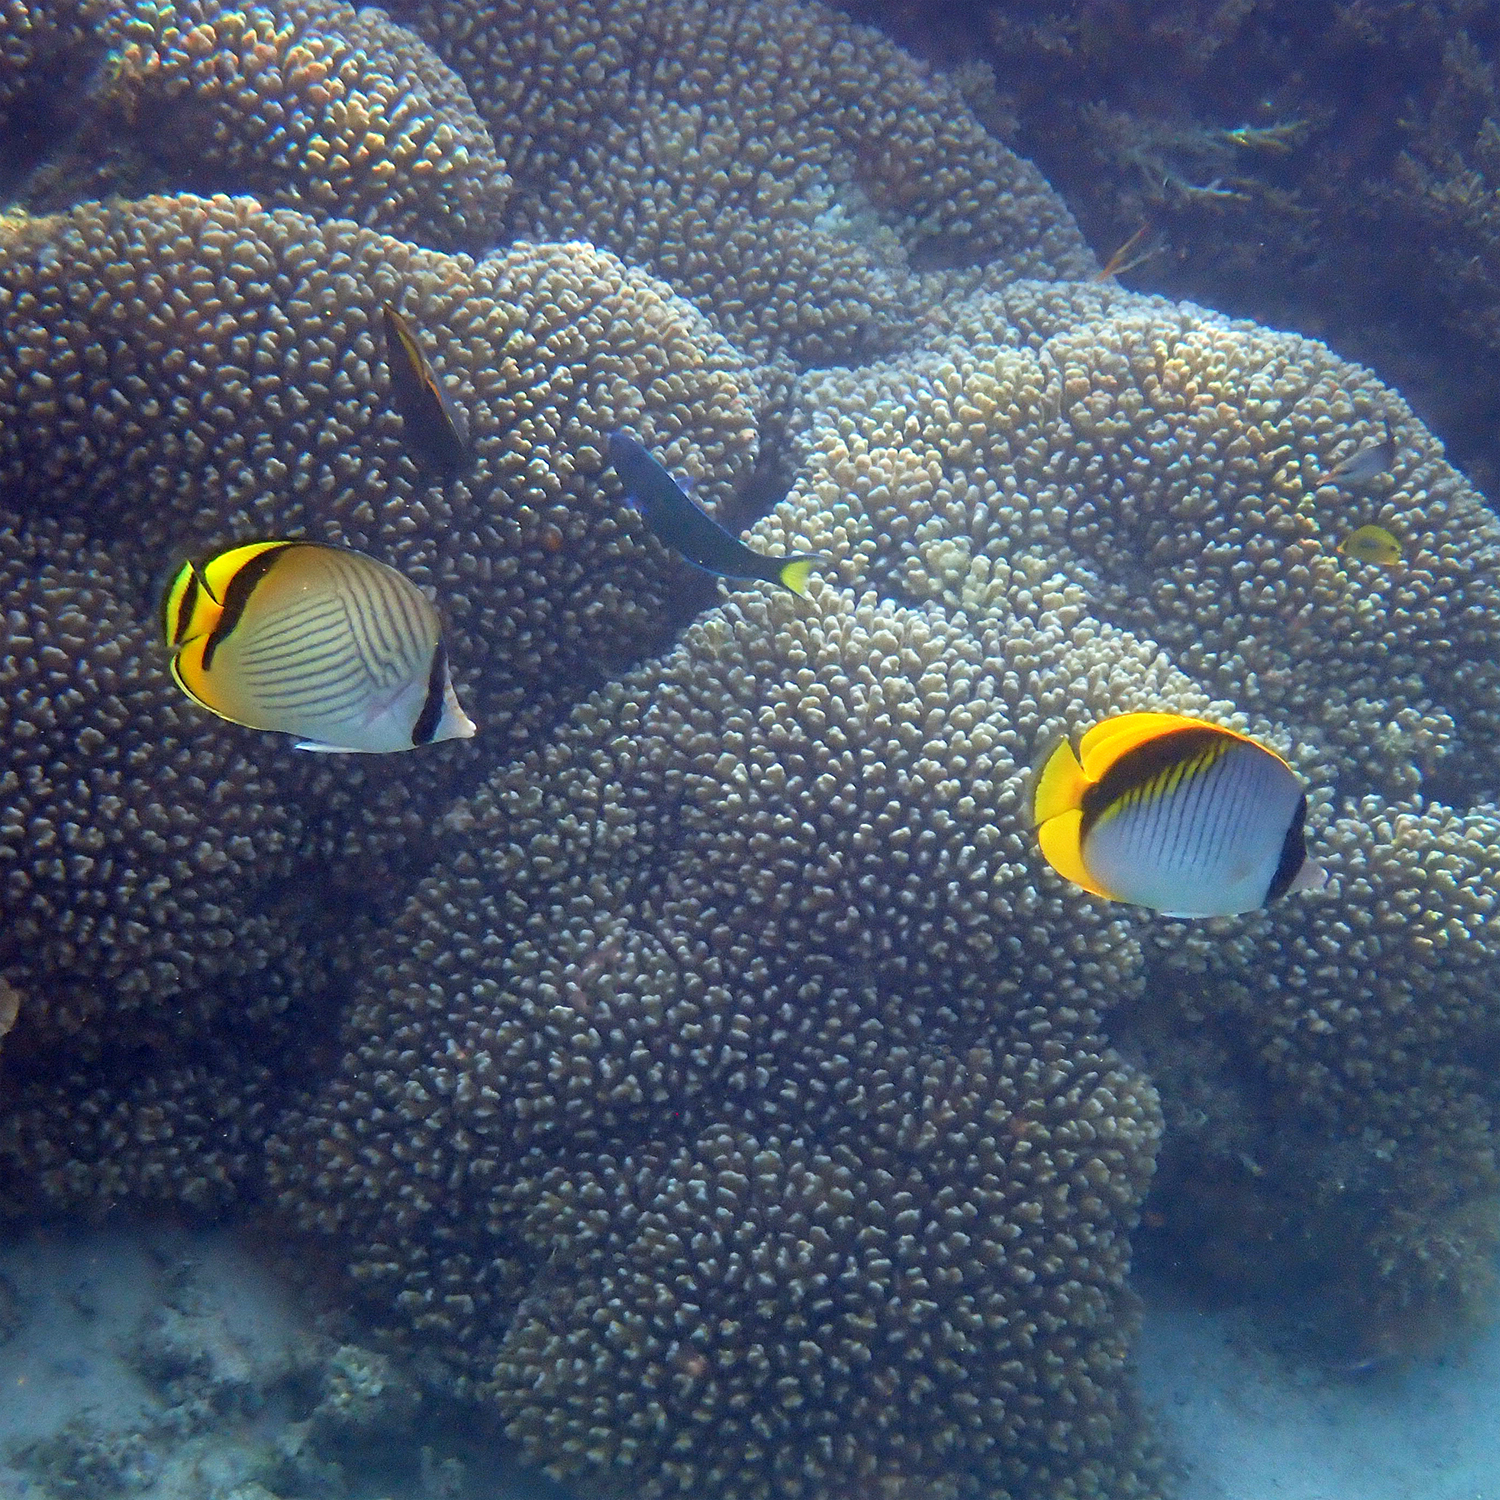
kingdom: Animalia
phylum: Chordata
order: Perciformes
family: Chaetodontidae
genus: Chaetodon
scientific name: Chaetodon vagabundus
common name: Vagabond butterflyfish
